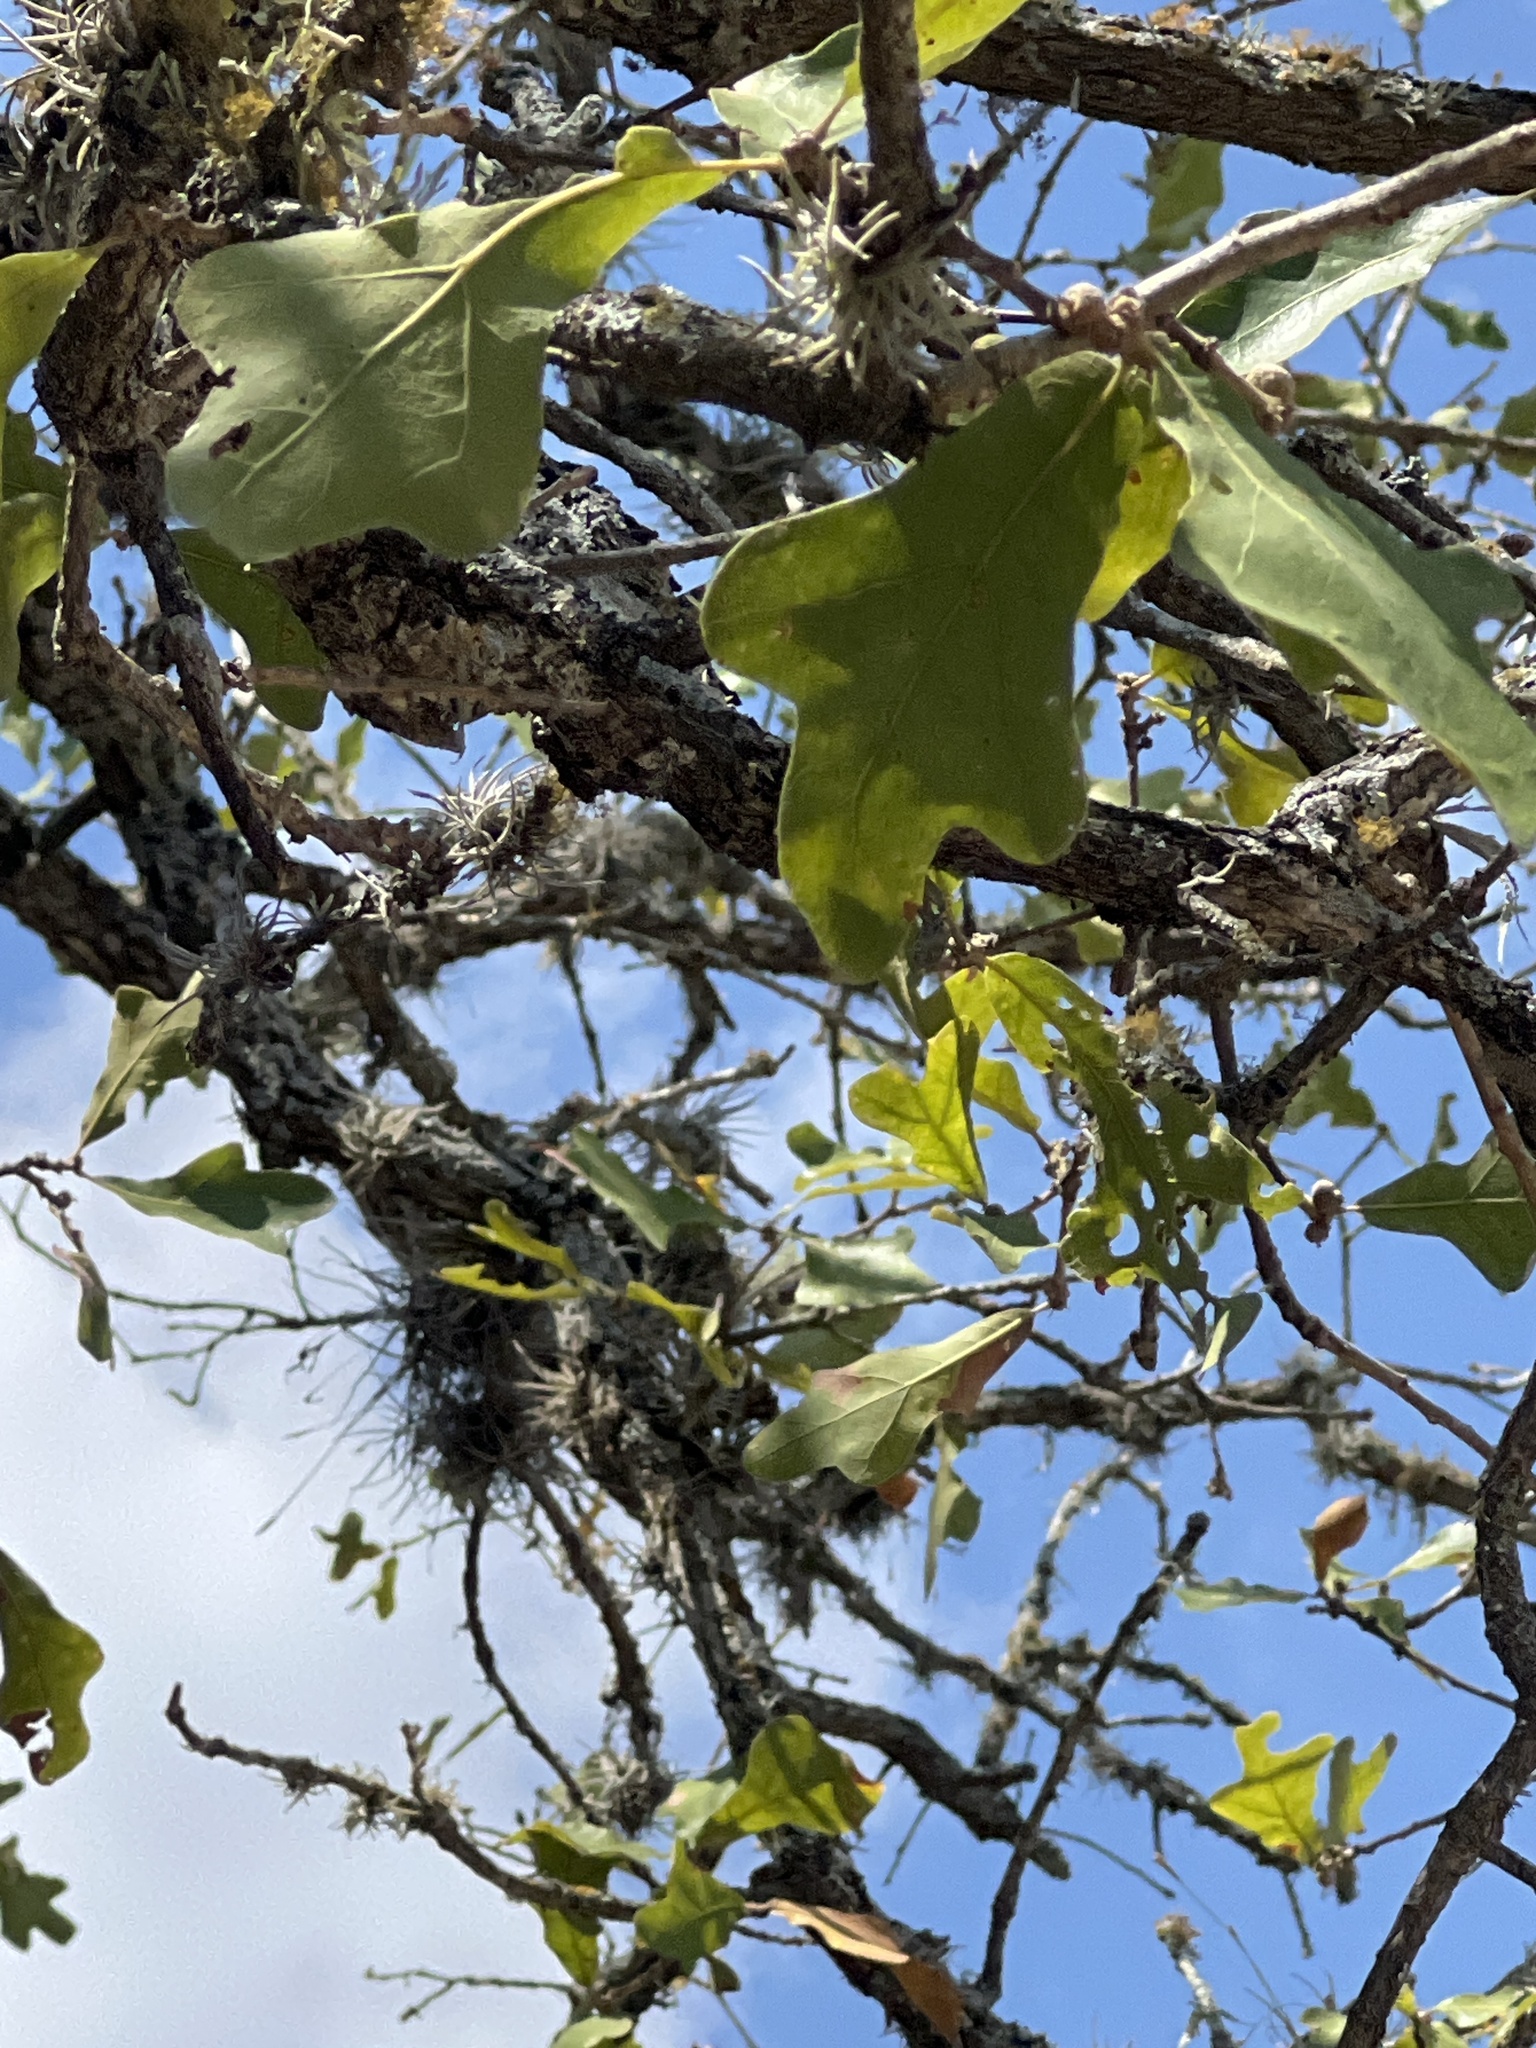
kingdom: Plantae
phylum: Tracheophyta
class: Magnoliopsida
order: Fagales
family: Fagaceae
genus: Quercus
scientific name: Quercus stellata
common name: Post oak
